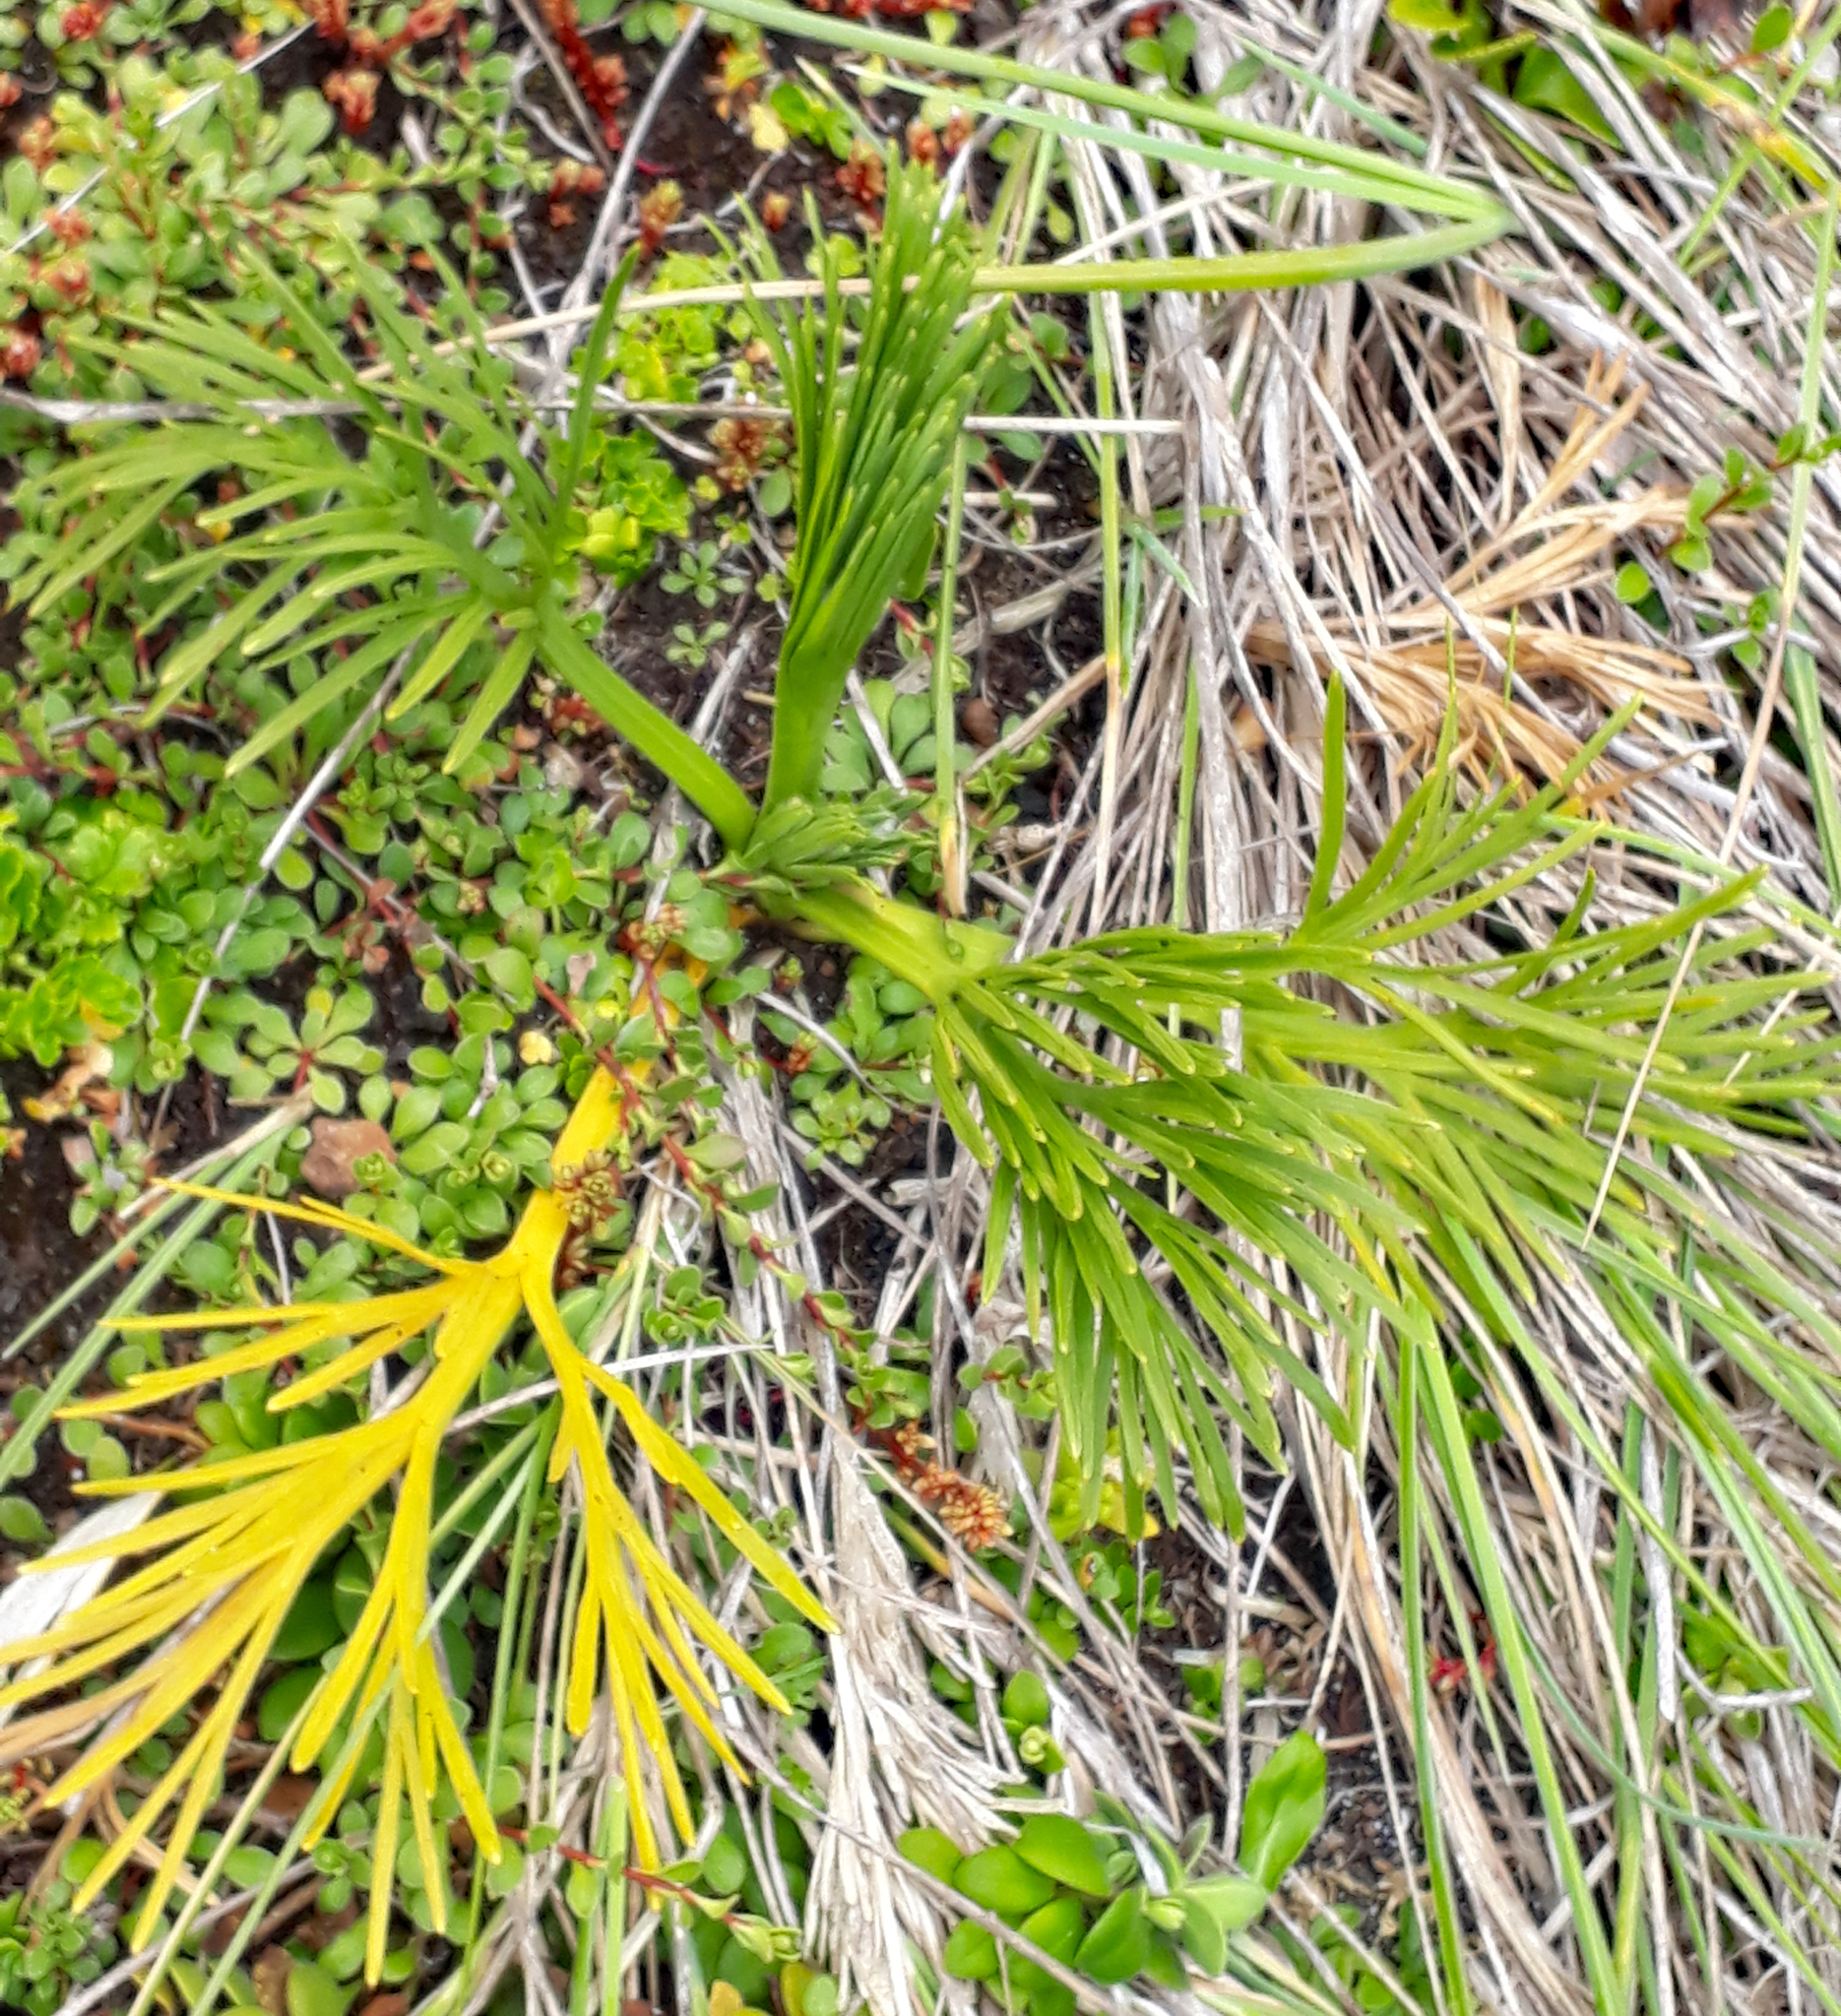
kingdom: Plantae
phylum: Tracheophyta
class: Magnoliopsida
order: Apiales
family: Apiaceae
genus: Aciphylla
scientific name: Aciphylla dieffenbachii
